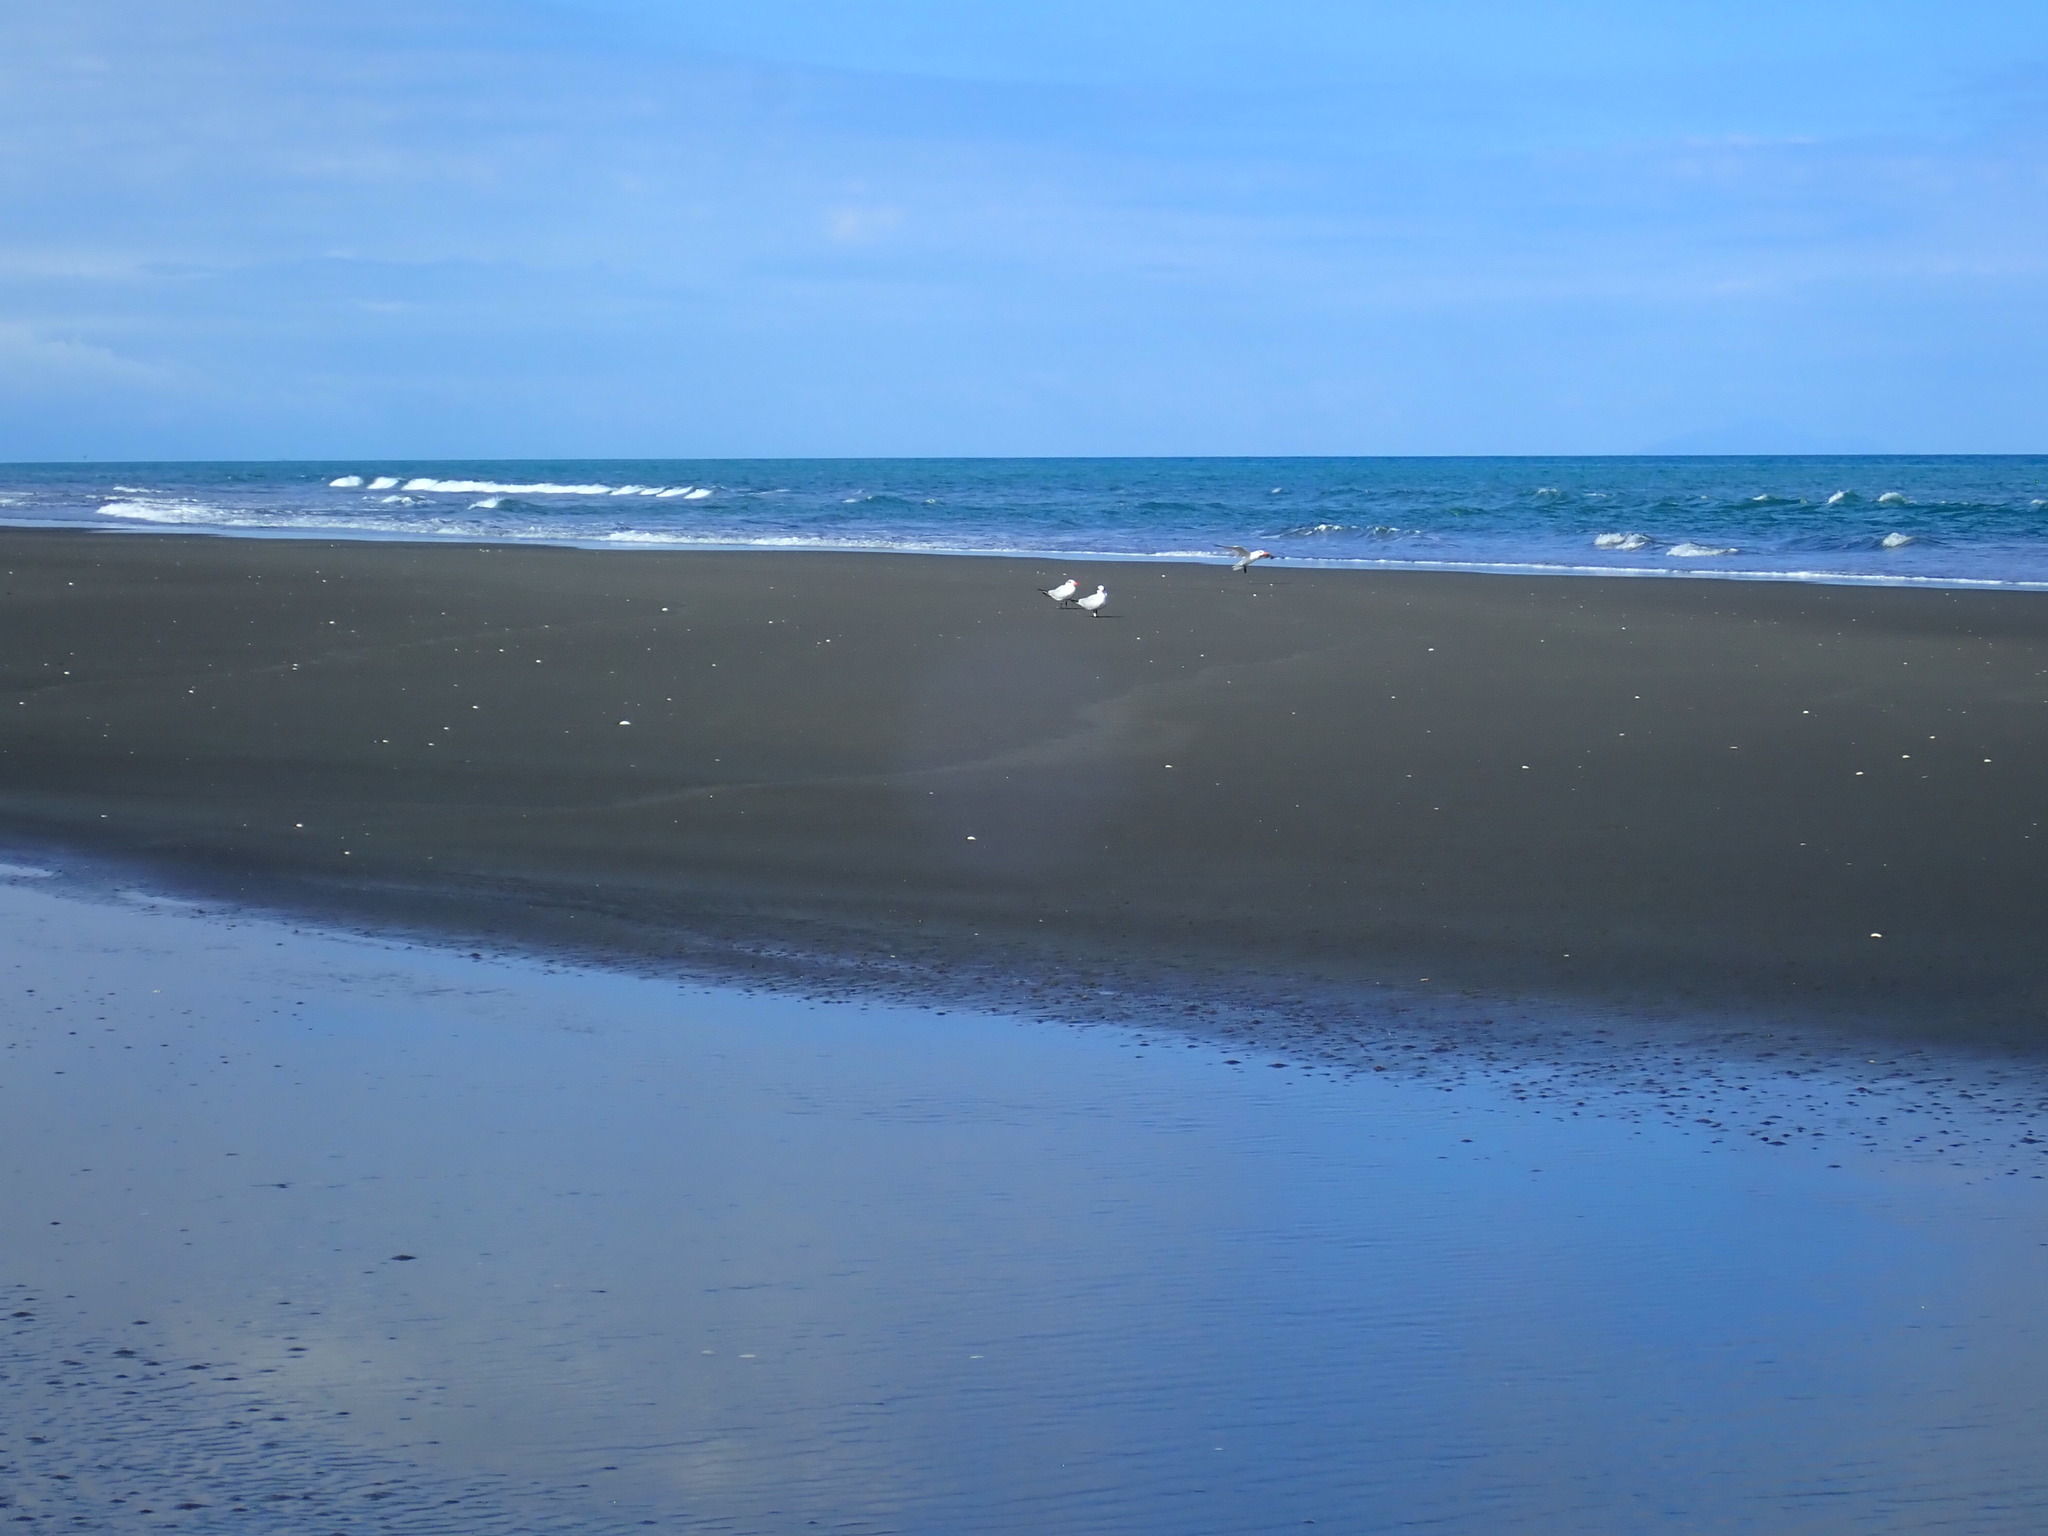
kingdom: Animalia
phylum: Chordata
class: Aves
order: Charadriiformes
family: Laridae
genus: Hydroprogne
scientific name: Hydroprogne caspia
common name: Caspian tern
